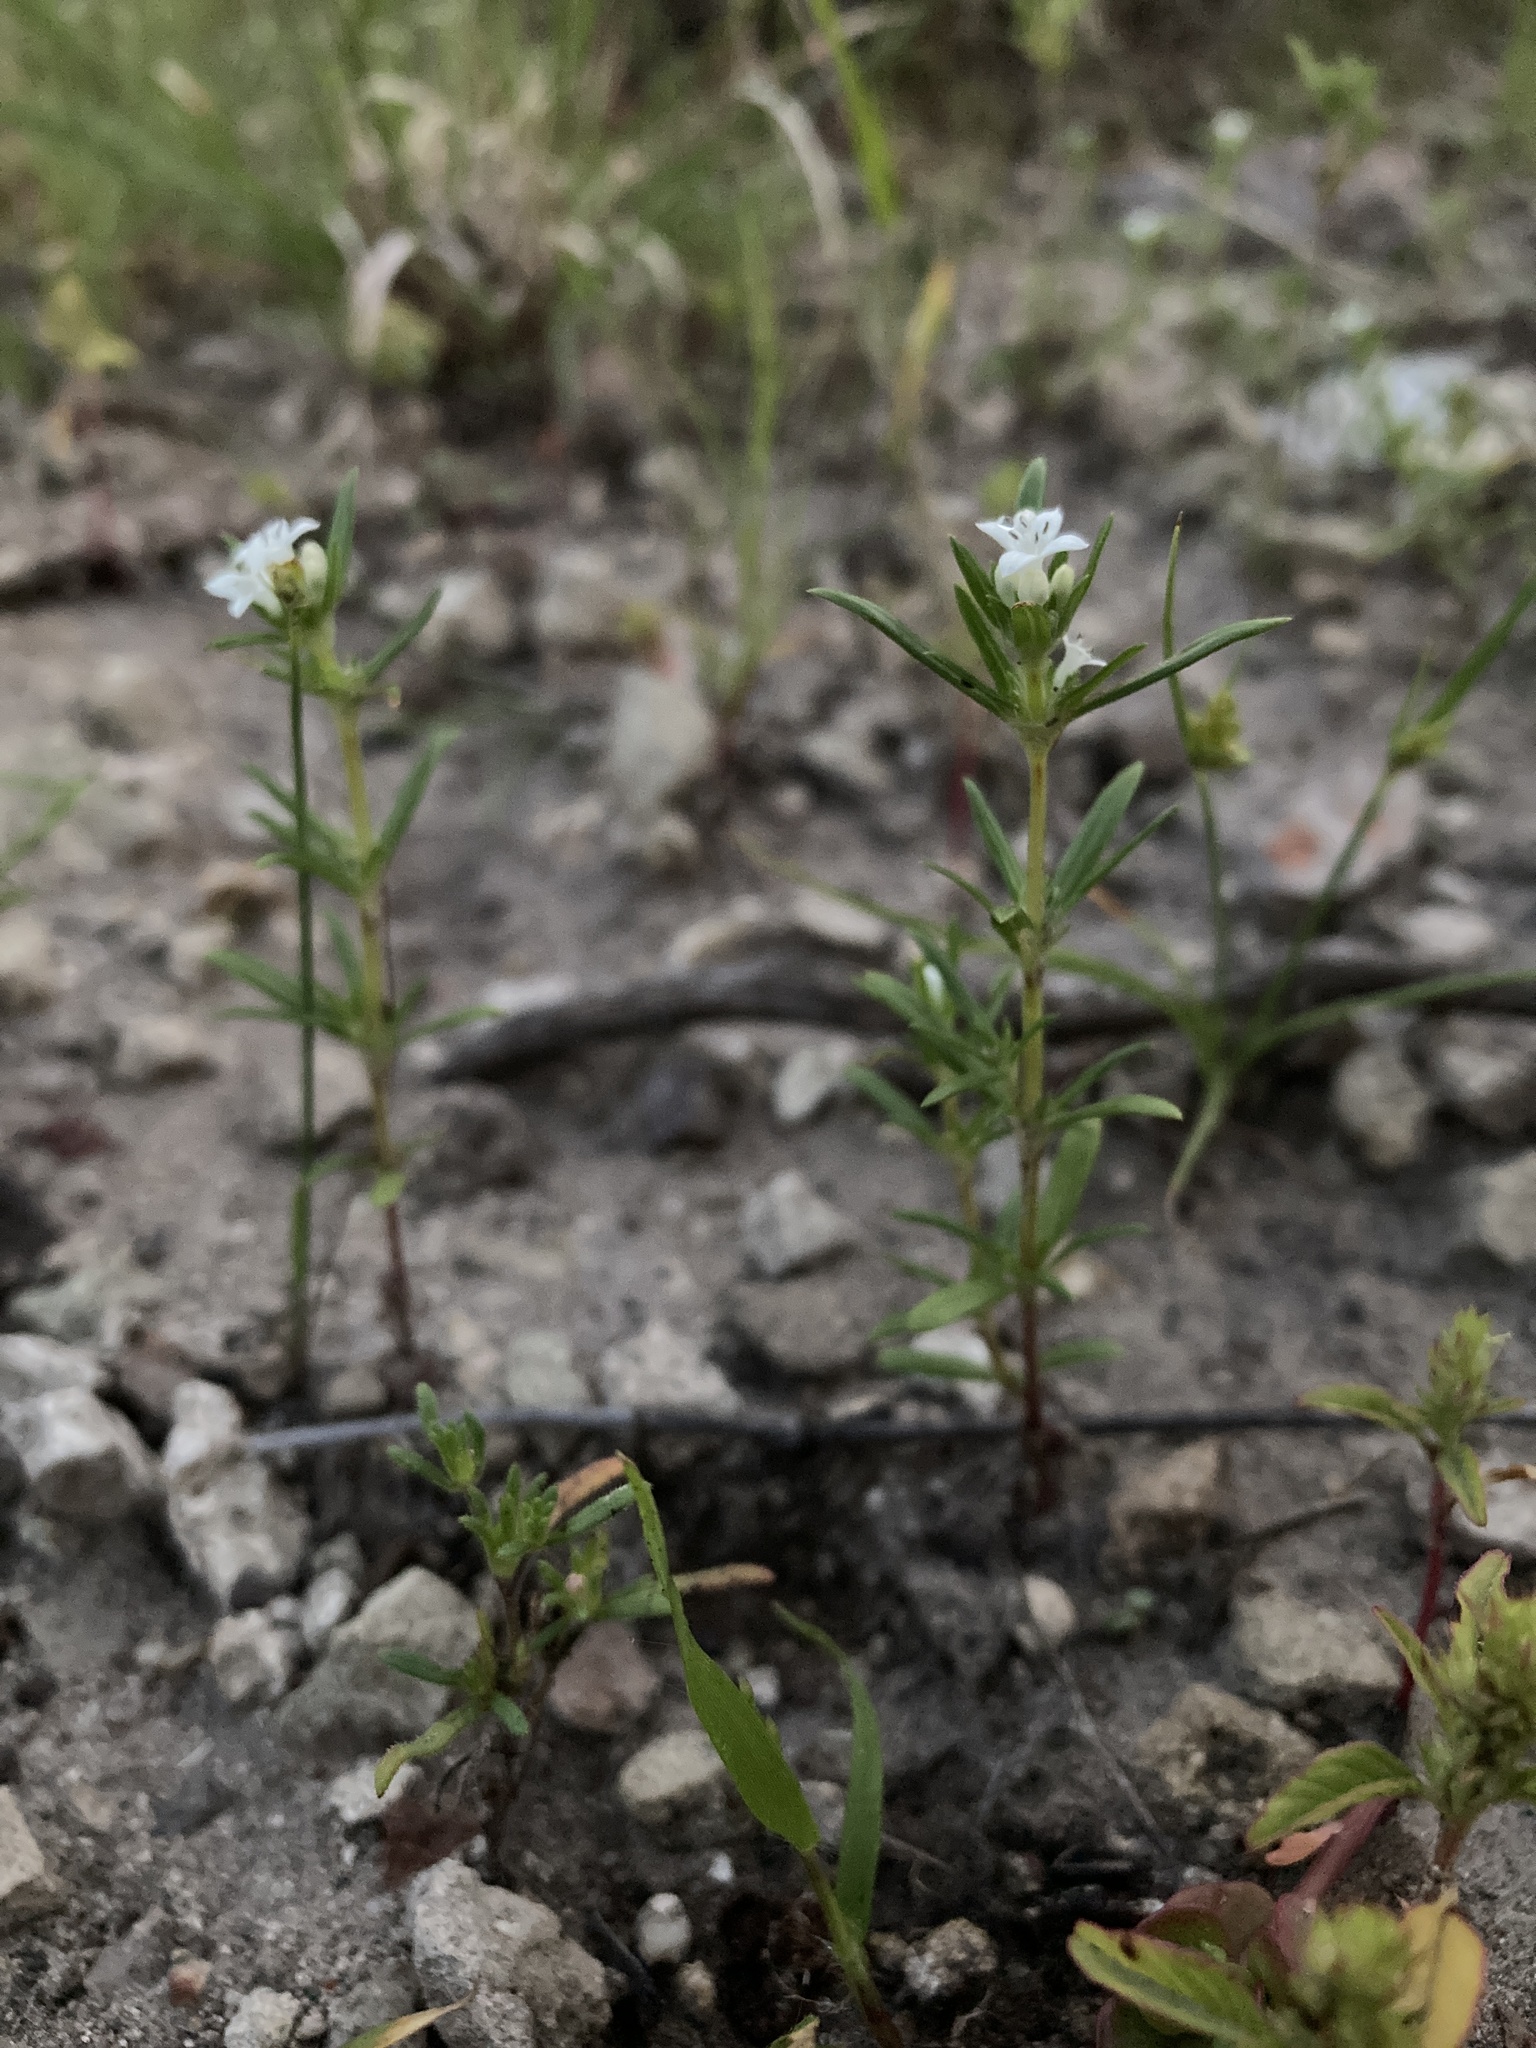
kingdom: Plantae
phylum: Tracheophyta
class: Magnoliopsida
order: Gentianales
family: Rubiaceae
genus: Crusea
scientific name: Crusea simplex
